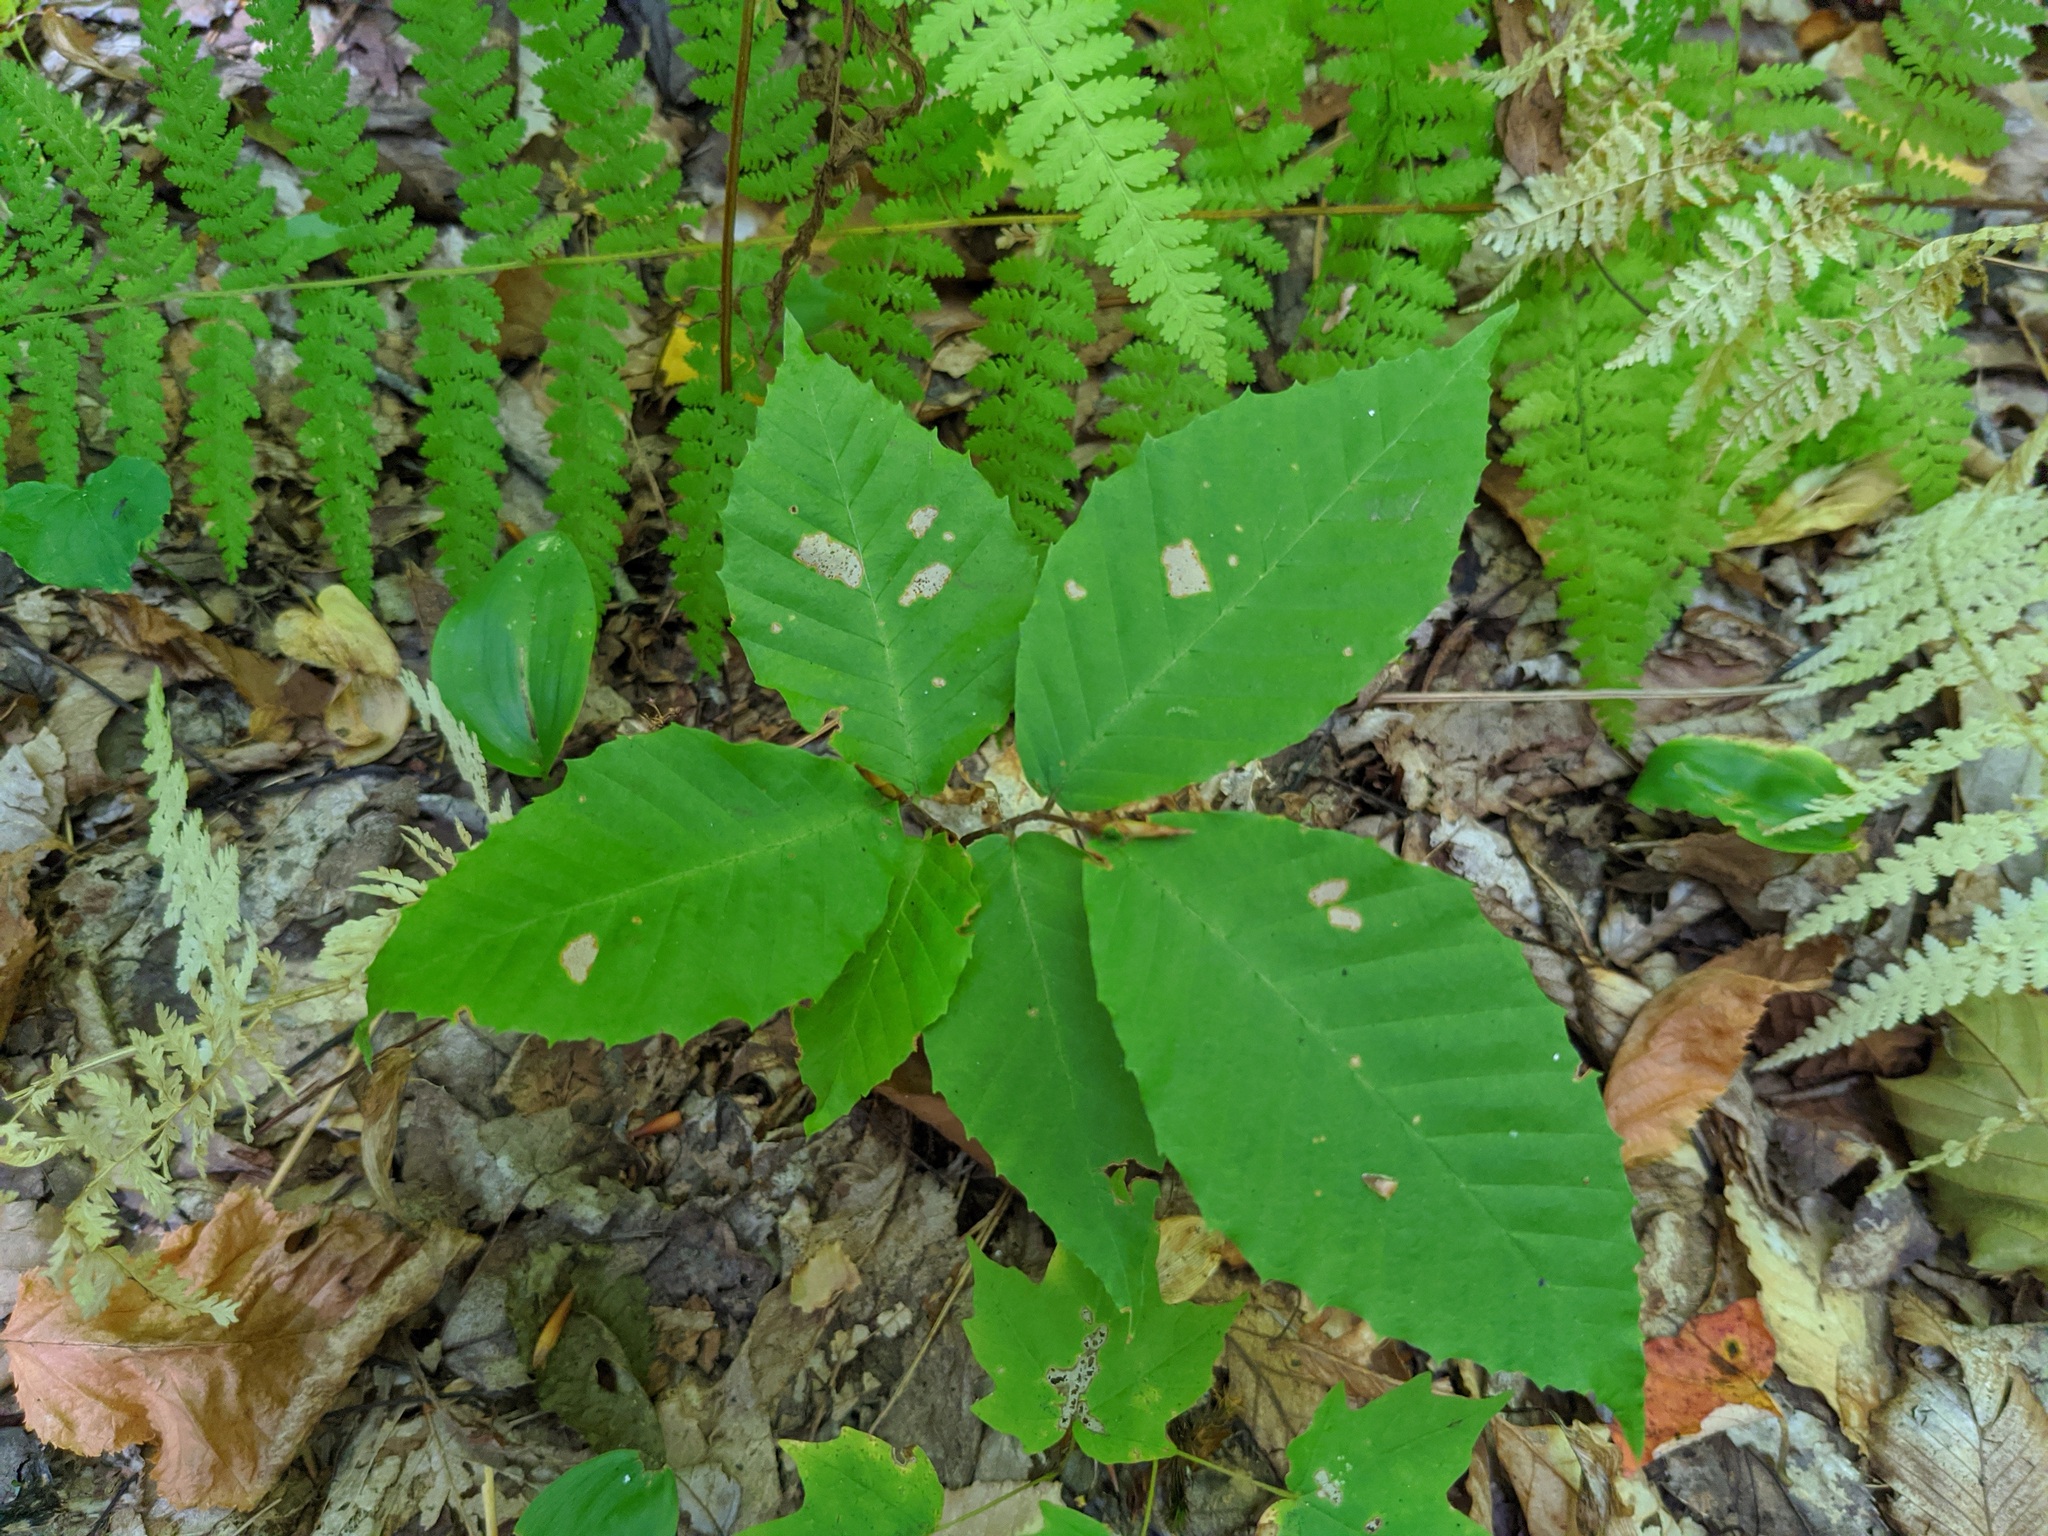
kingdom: Plantae
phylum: Tracheophyta
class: Magnoliopsida
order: Fagales
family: Fagaceae
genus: Fagus
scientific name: Fagus grandifolia
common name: American beech
